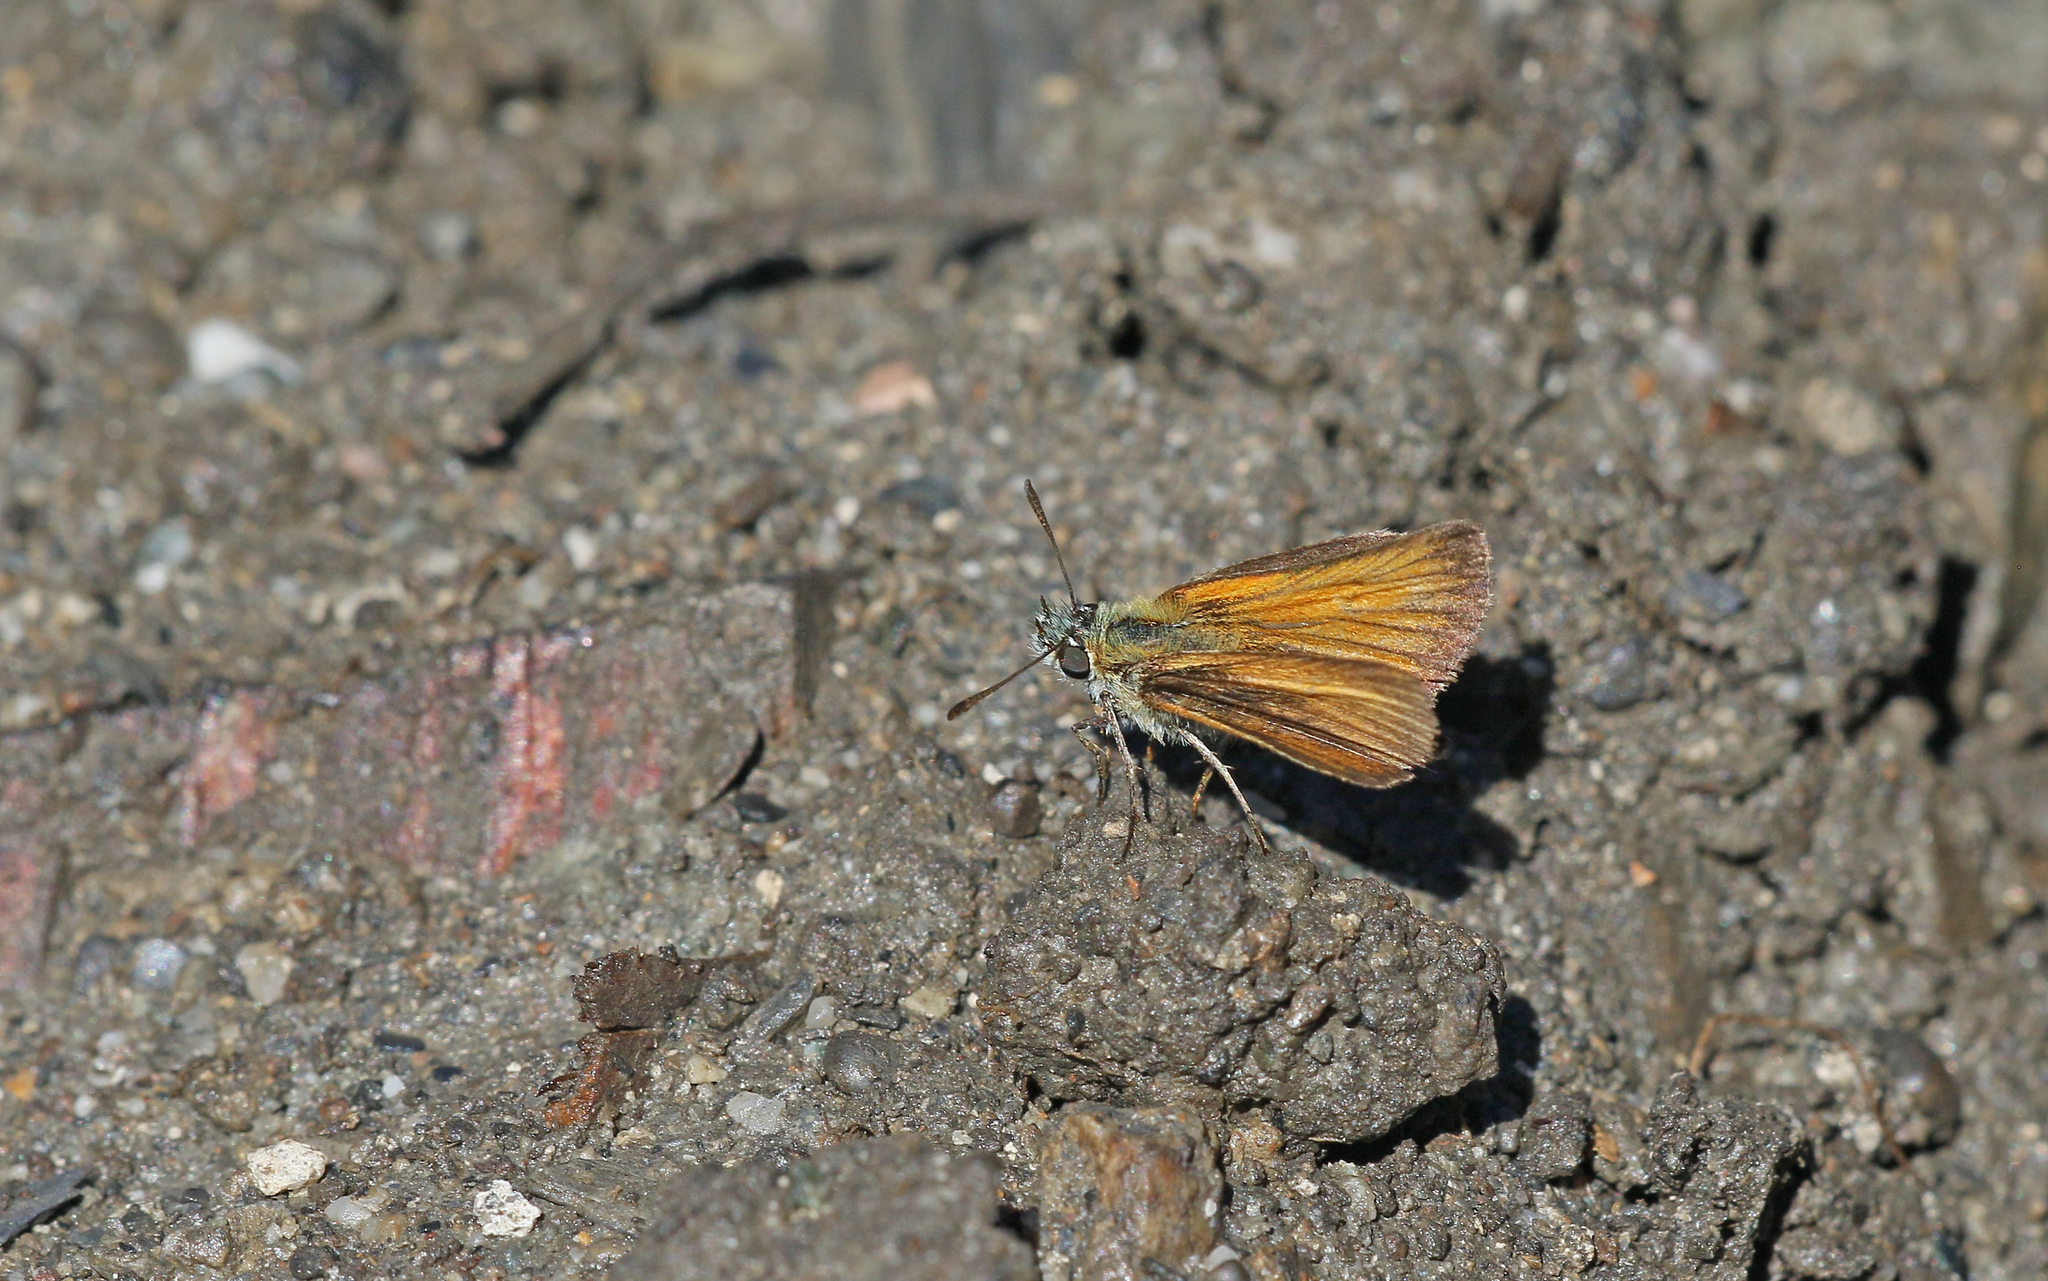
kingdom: Animalia
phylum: Arthropoda
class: Insecta
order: Lepidoptera
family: Hesperiidae
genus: Thymelicus
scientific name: Thymelicus lineola
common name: Essex skipper
